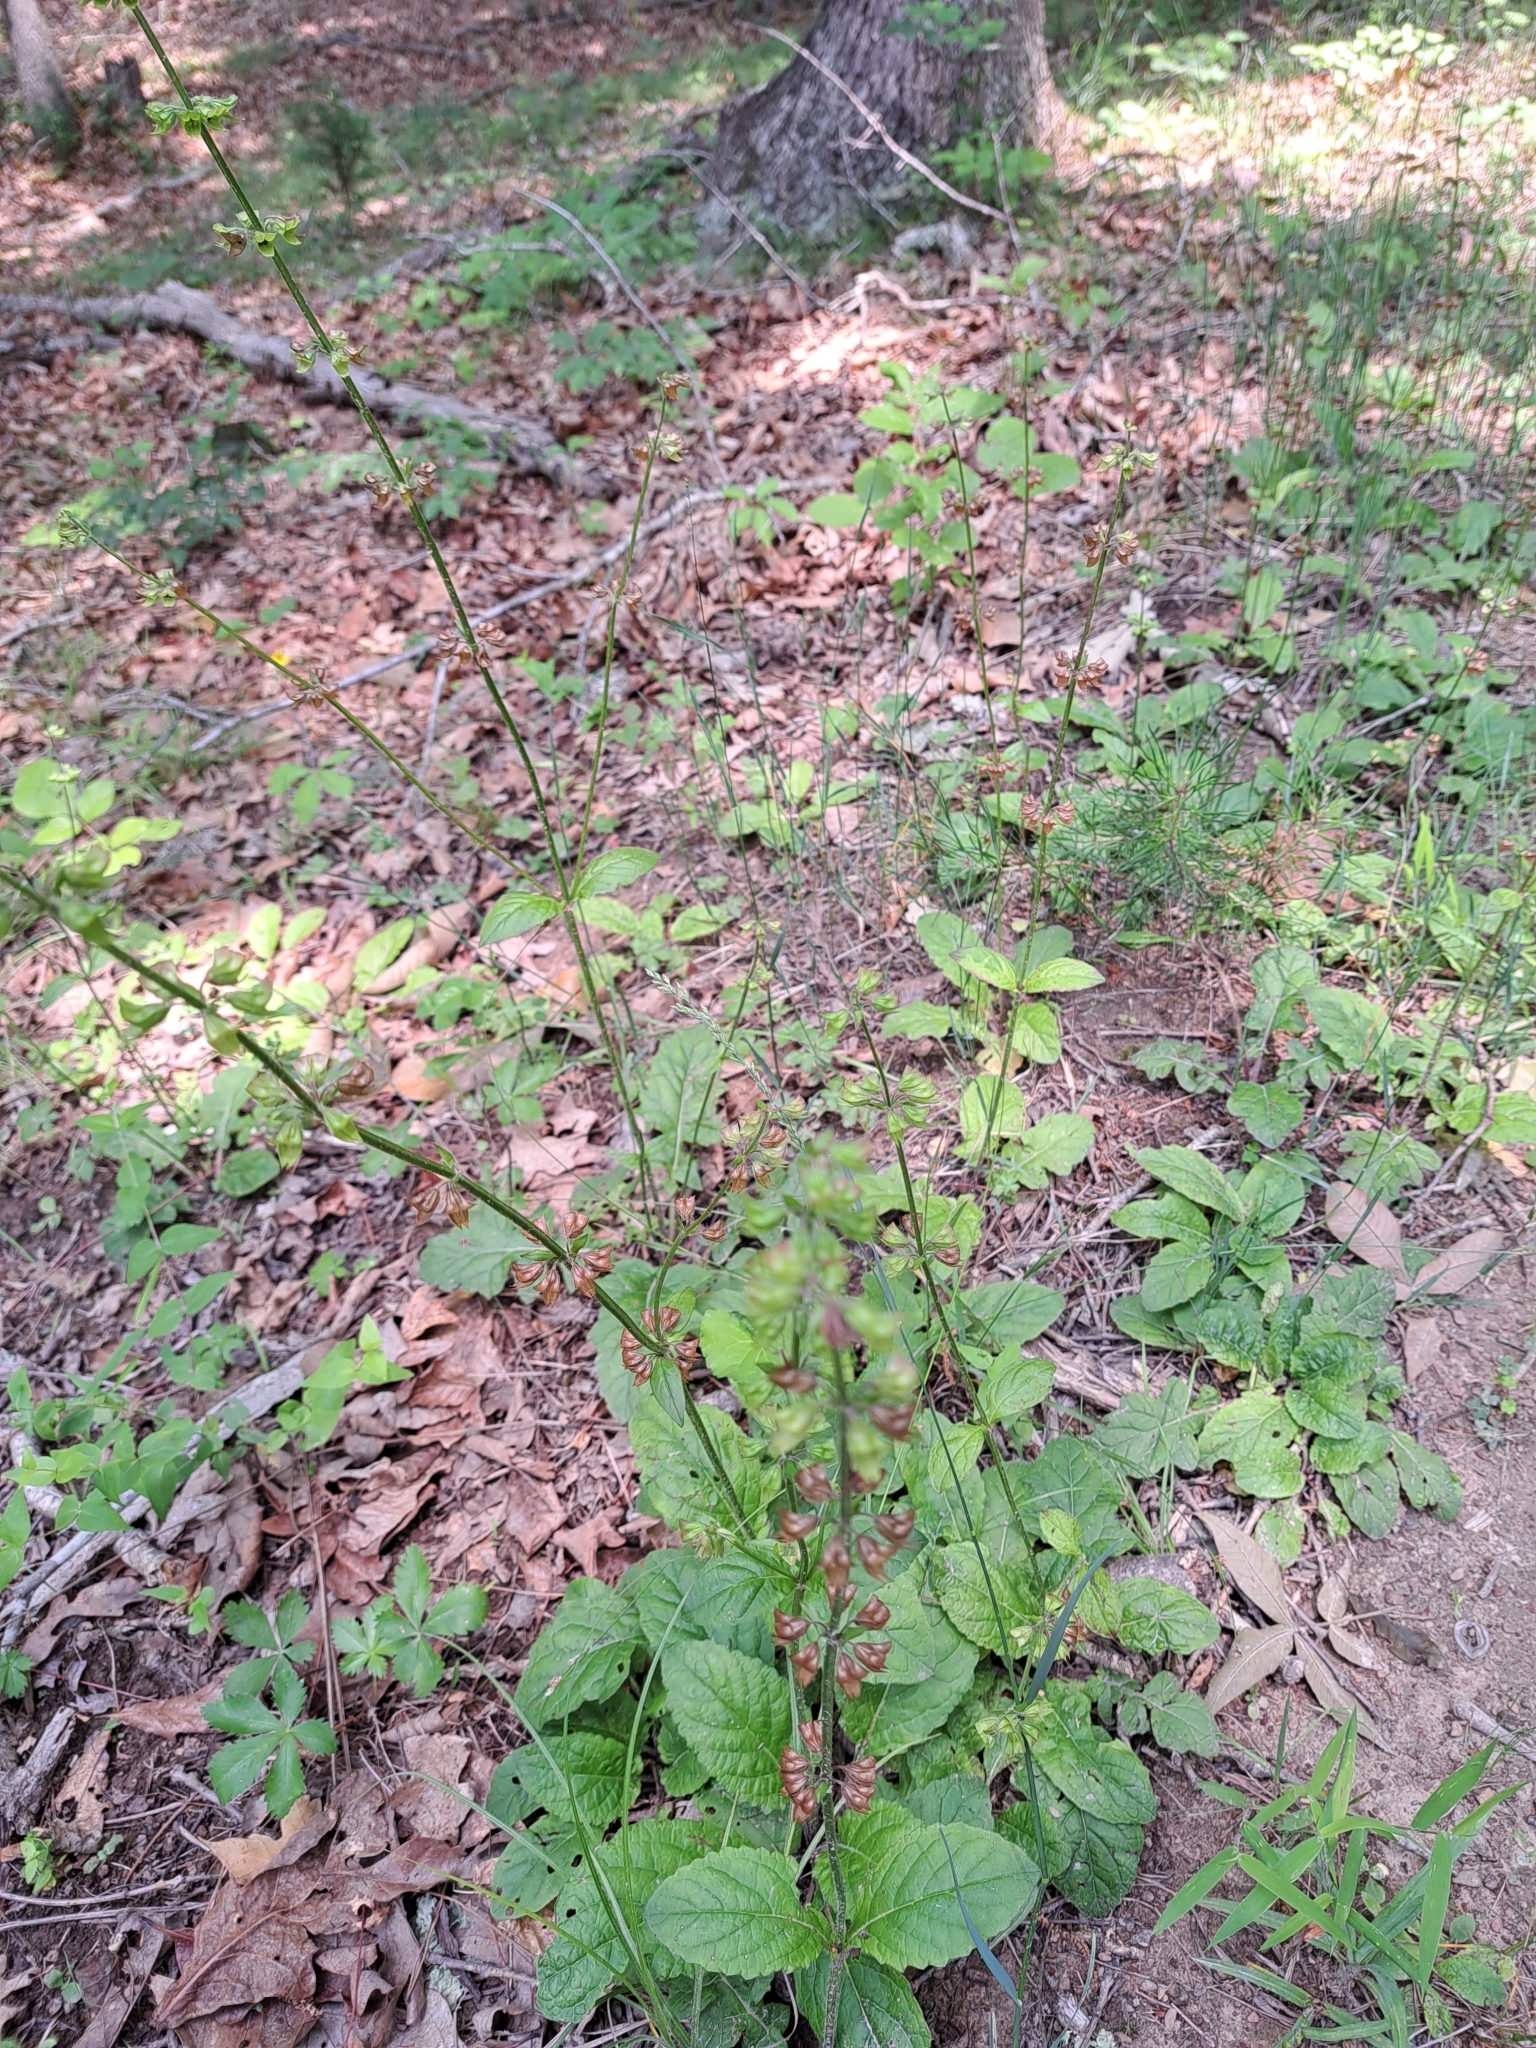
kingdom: Plantae
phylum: Tracheophyta
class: Magnoliopsida
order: Lamiales
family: Lamiaceae
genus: Salvia
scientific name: Salvia lyrata
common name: Cancerweed
